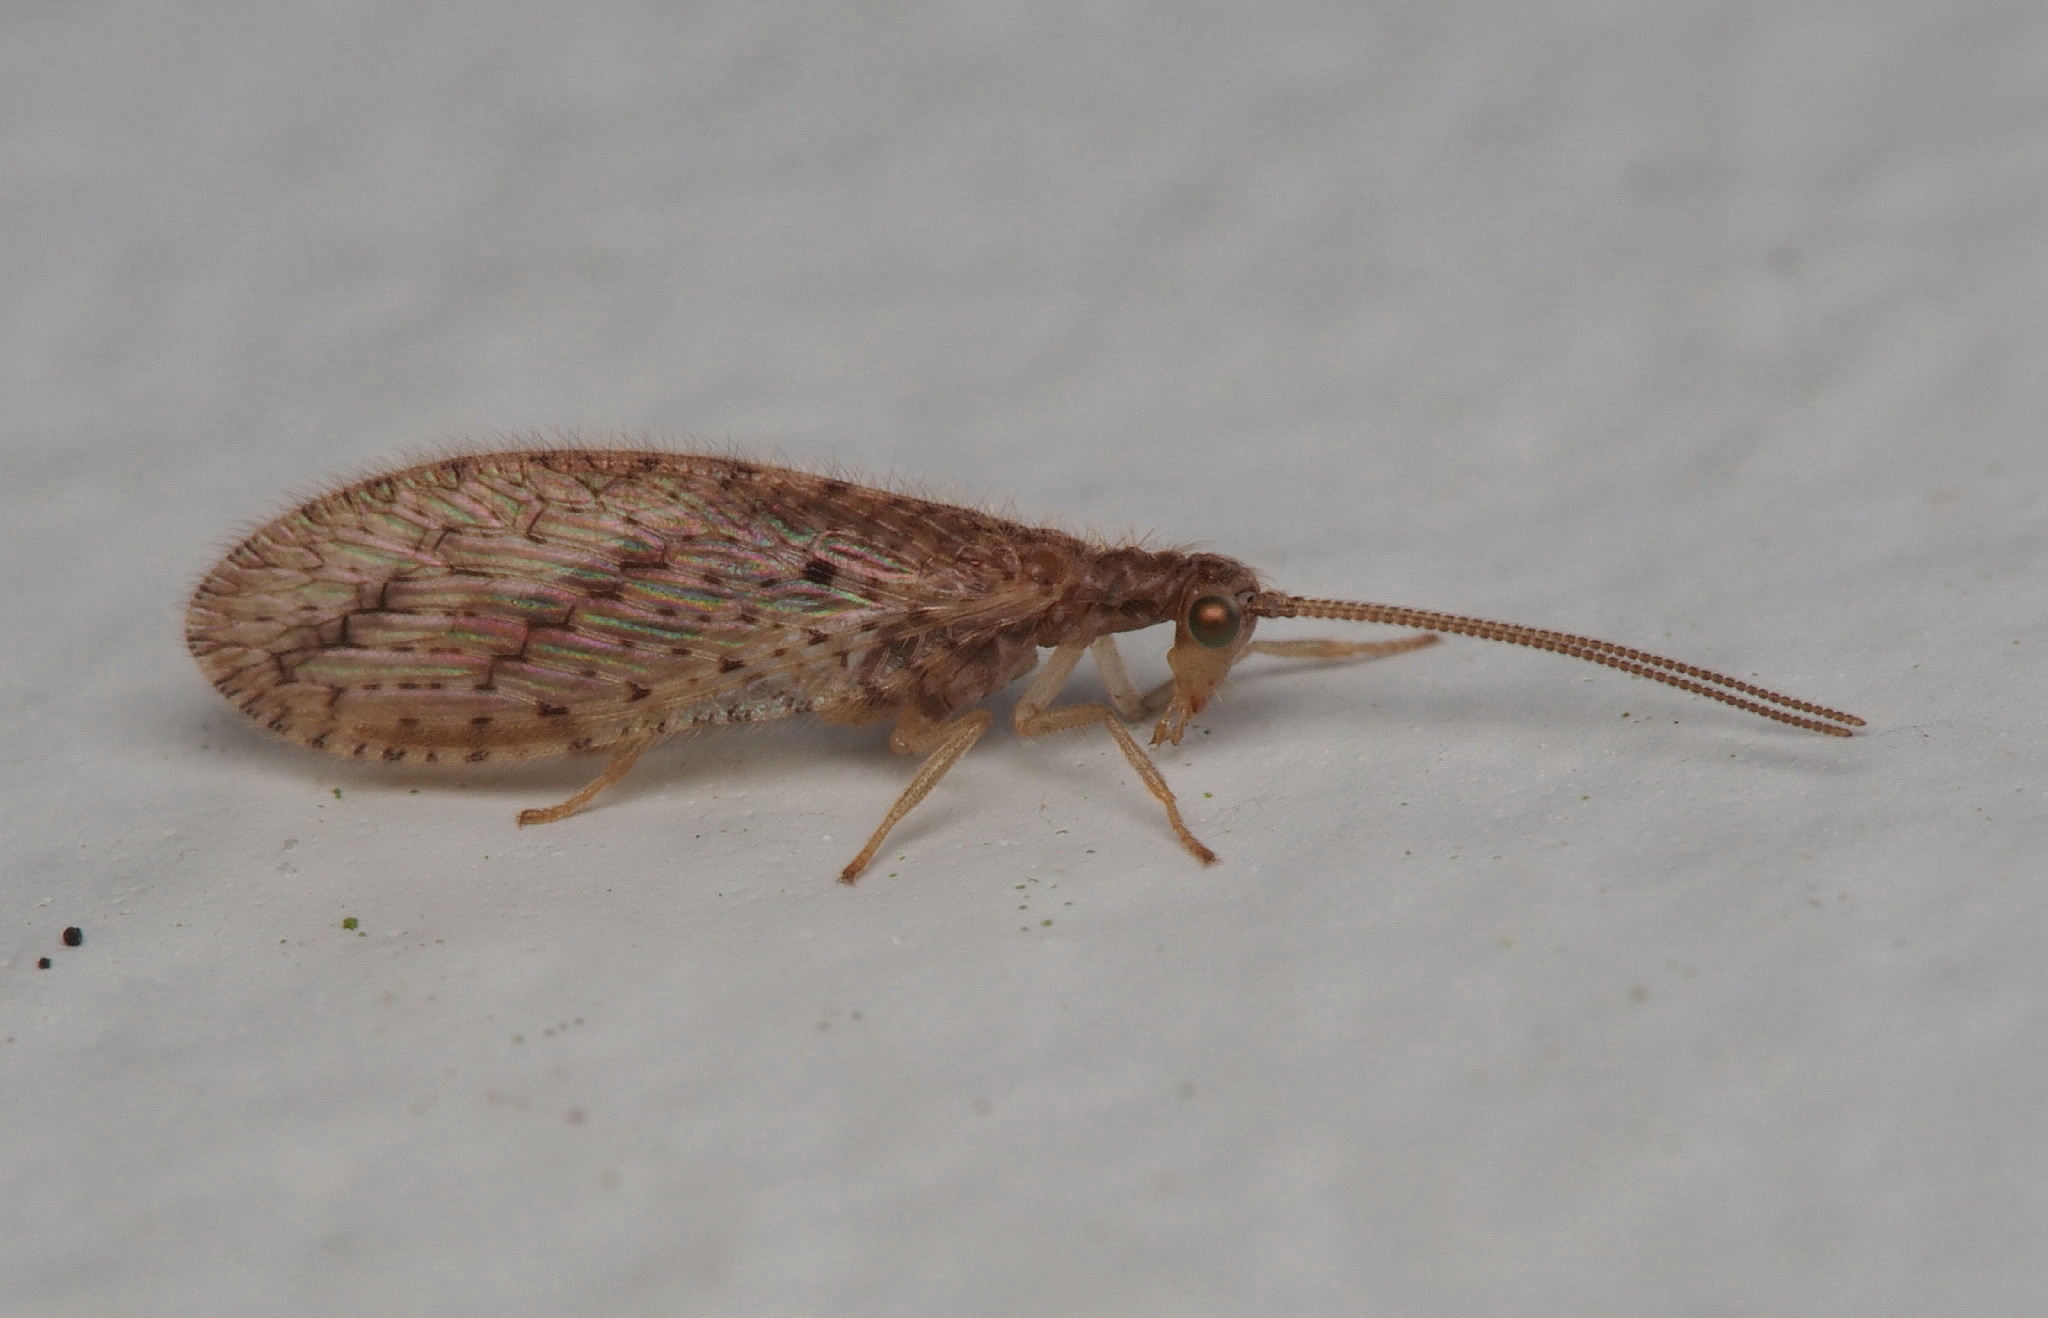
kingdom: Animalia
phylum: Arthropoda
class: Insecta
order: Neuroptera
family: Hemerobiidae
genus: Micromus
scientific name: Micromus tasmaniae
